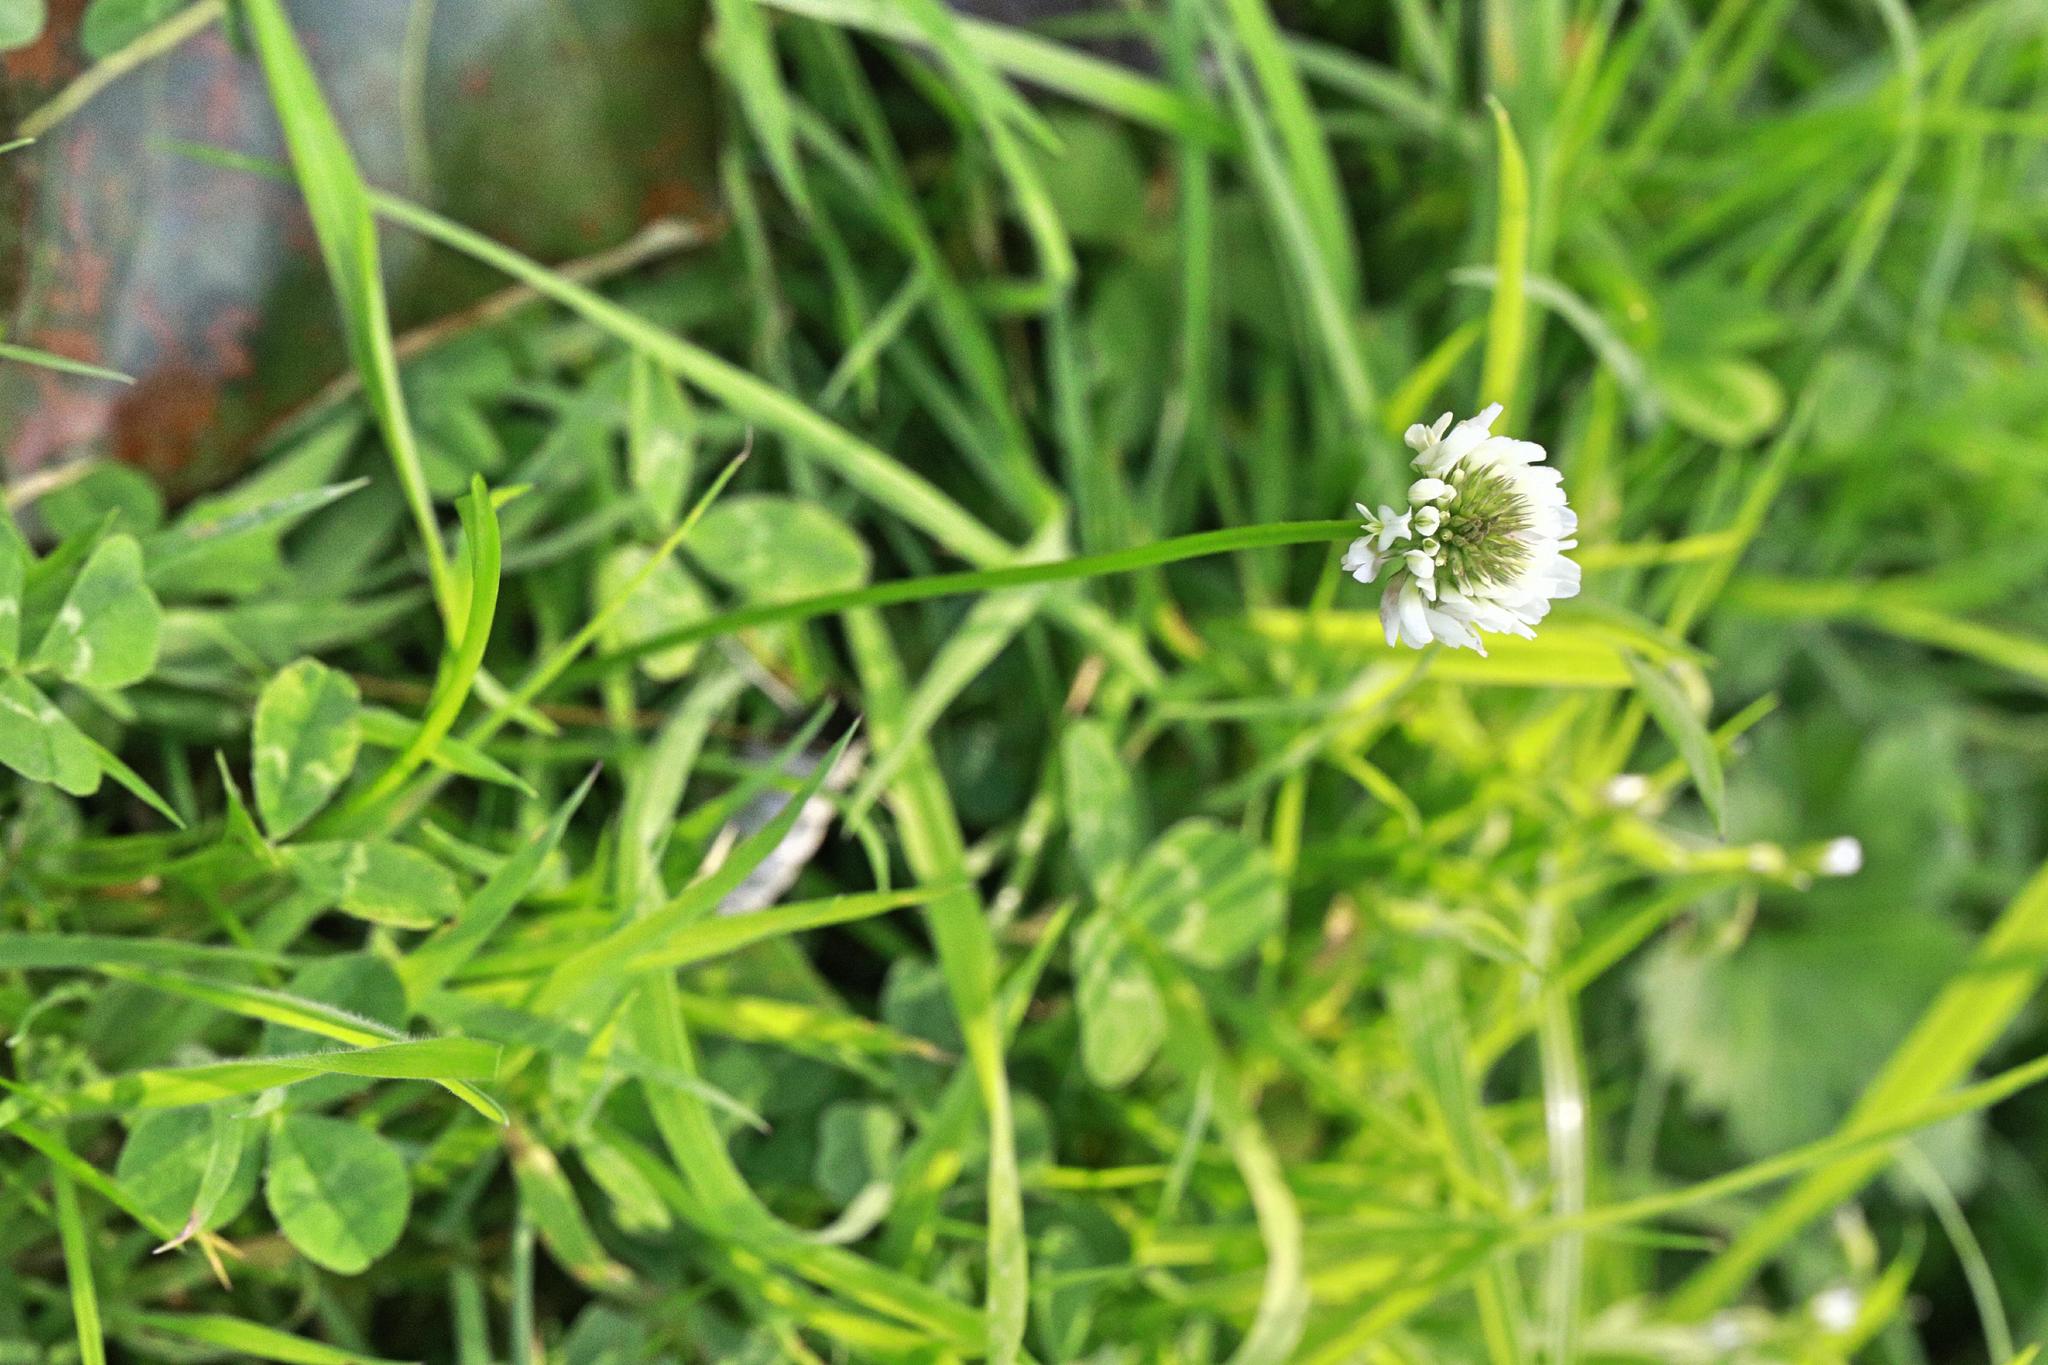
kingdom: Plantae
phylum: Tracheophyta
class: Magnoliopsida
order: Fabales
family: Fabaceae
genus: Trifolium
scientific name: Trifolium repens
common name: White clover
